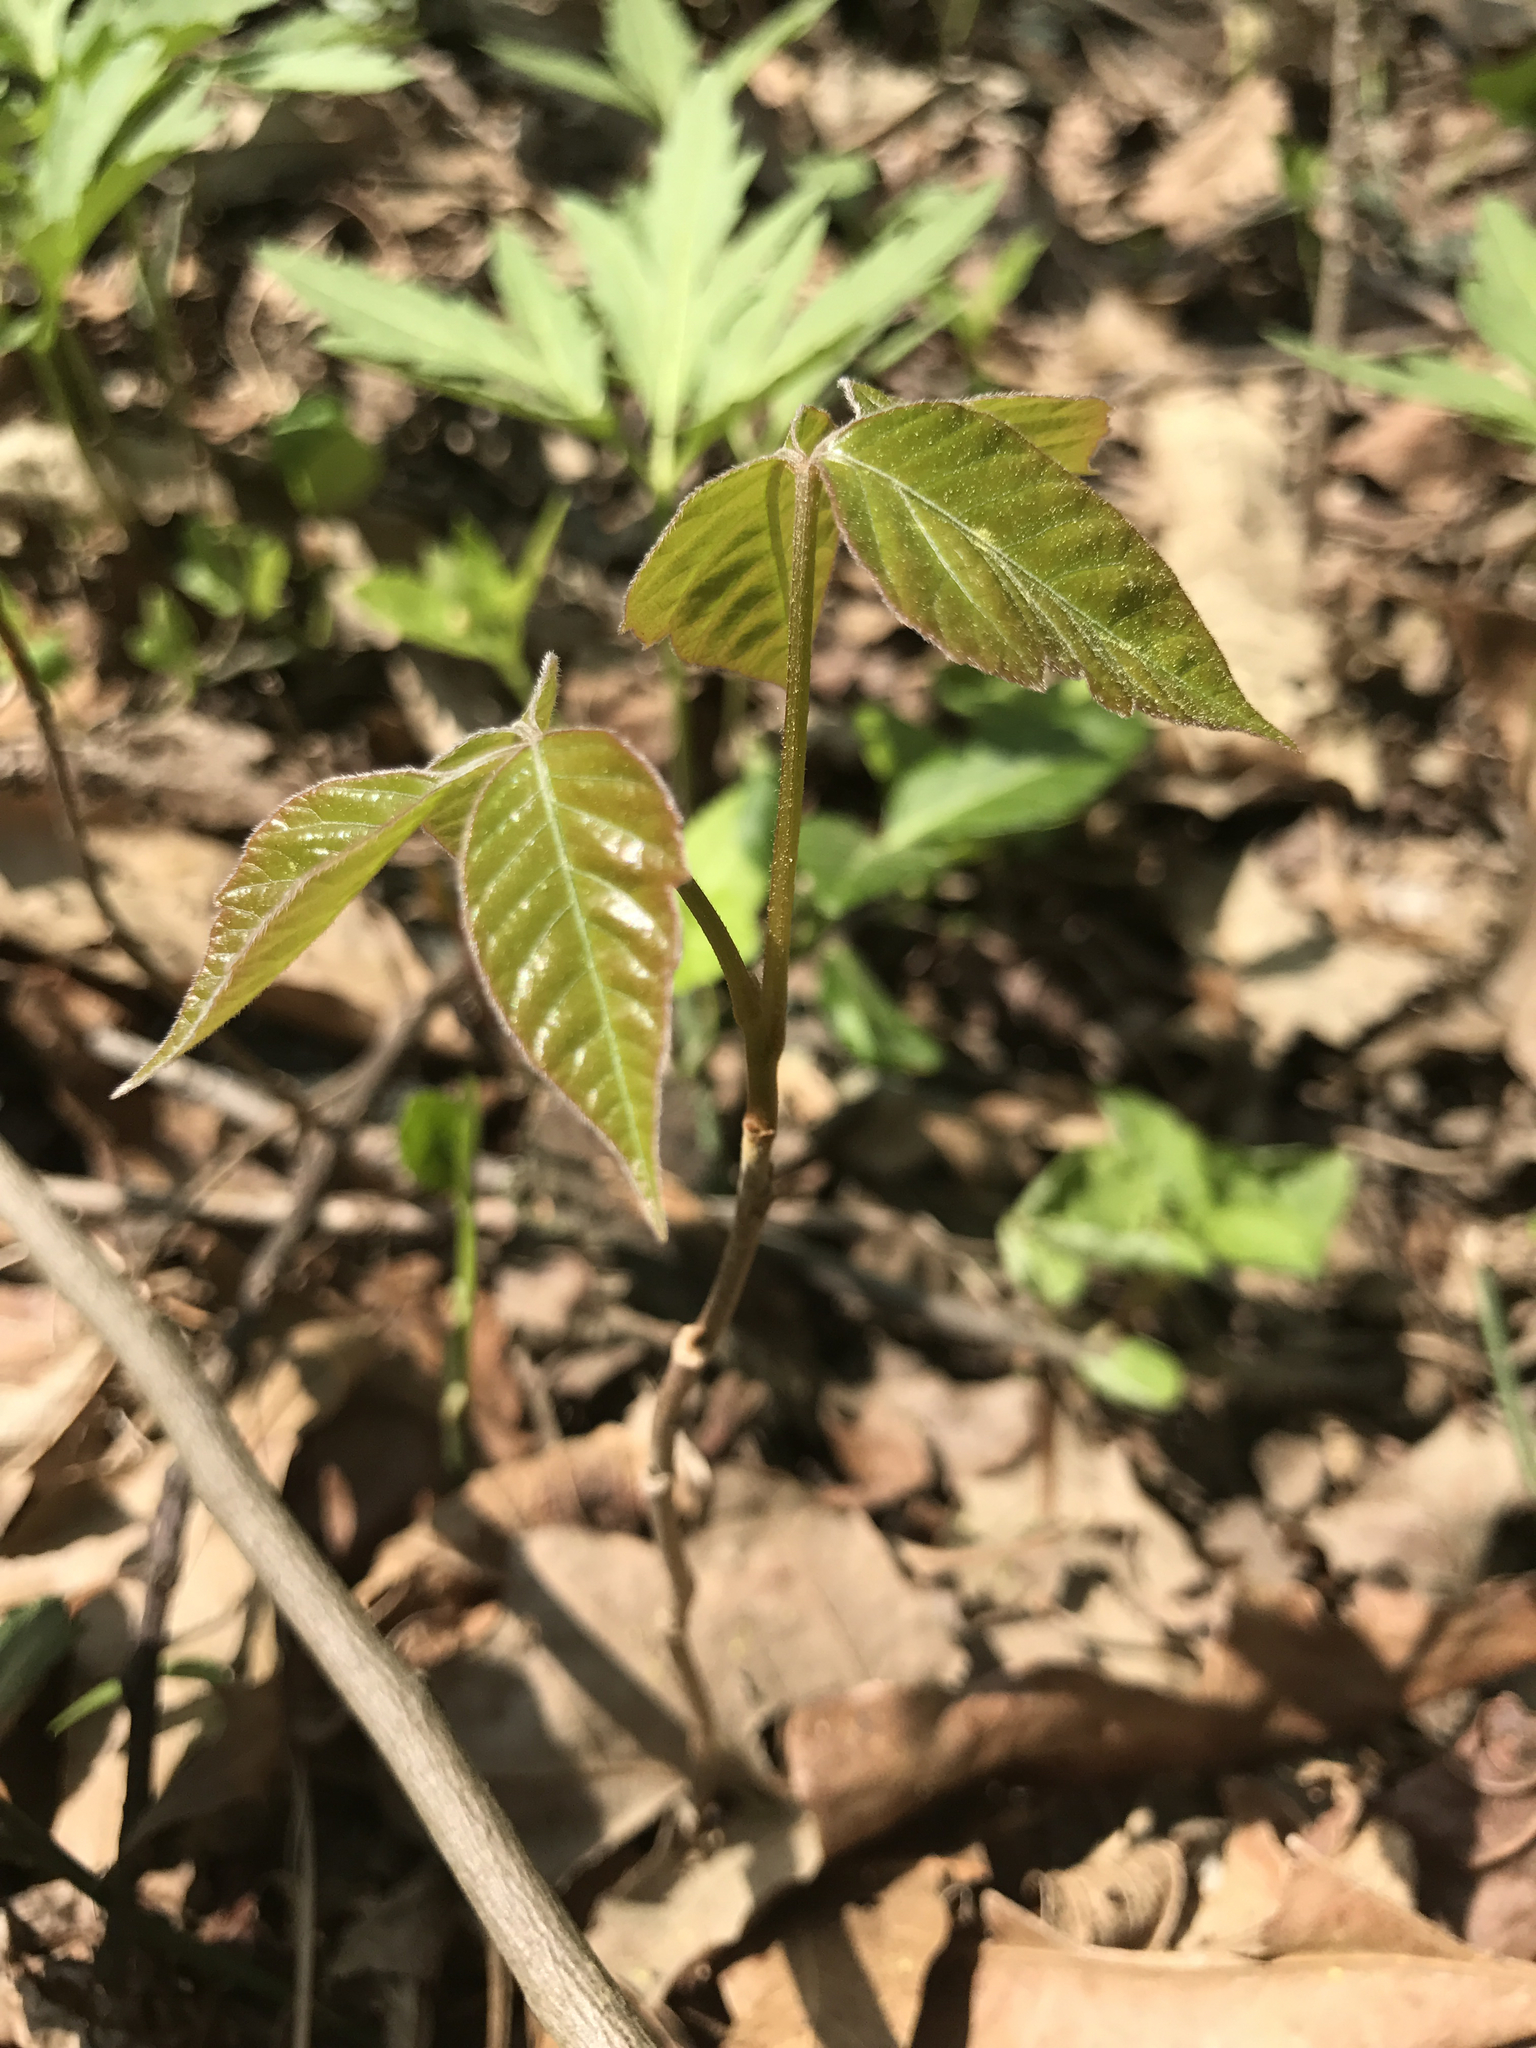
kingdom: Plantae
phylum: Tracheophyta
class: Magnoliopsida
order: Sapindales
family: Anacardiaceae
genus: Toxicodendron
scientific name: Toxicodendron radicans
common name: Poison ivy
